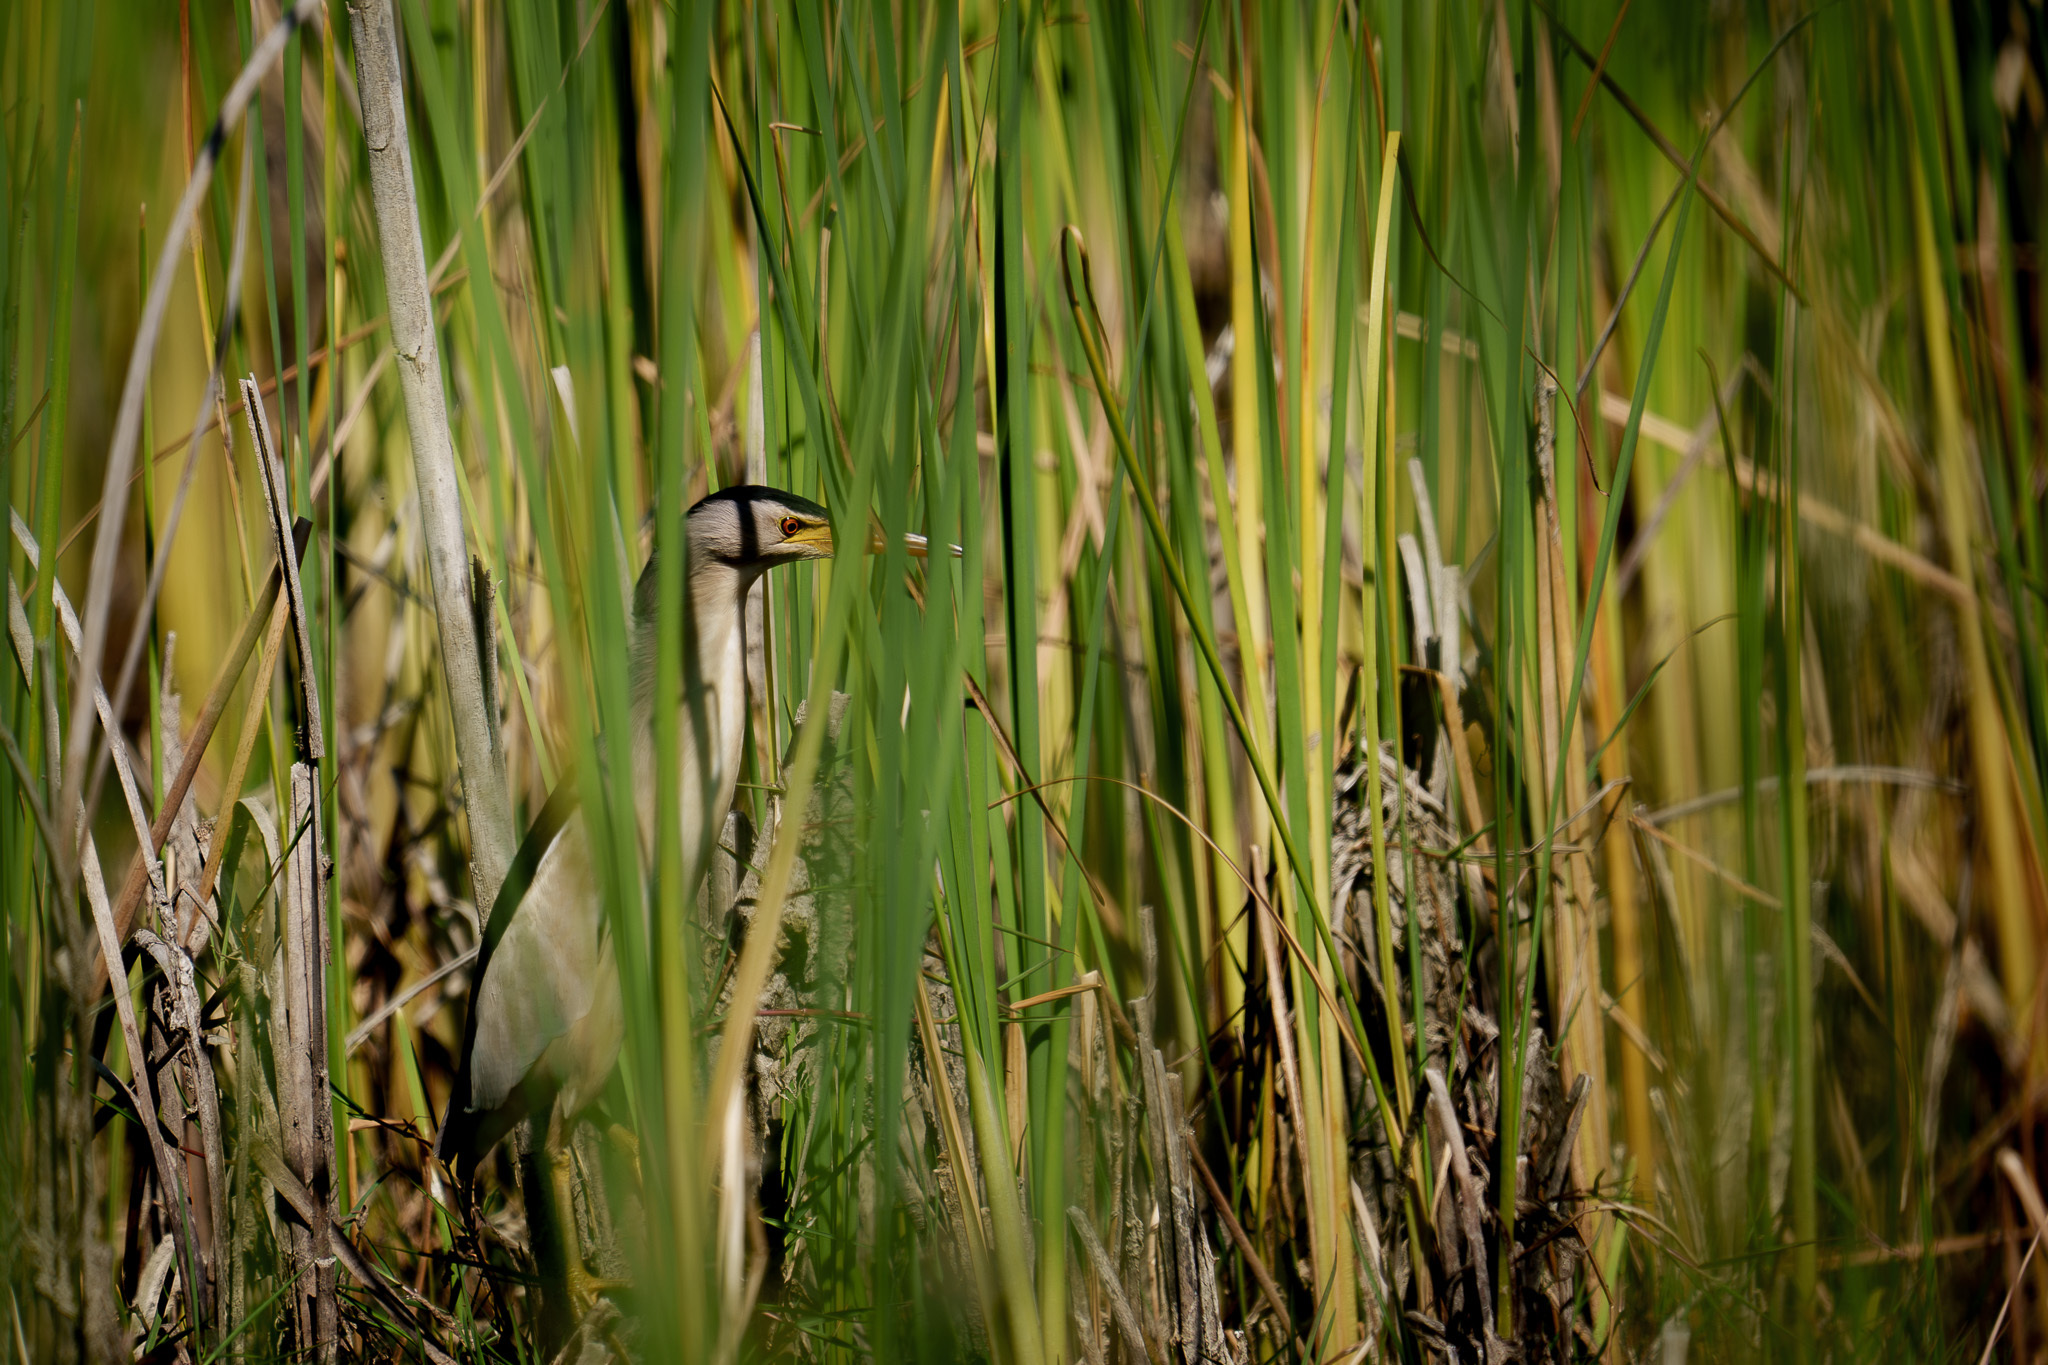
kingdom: Animalia
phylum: Chordata
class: Aves
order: Pelecaniformes
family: Ardeidae
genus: Ixobrychus
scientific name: Ixobrychus minutus
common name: Little bittern
